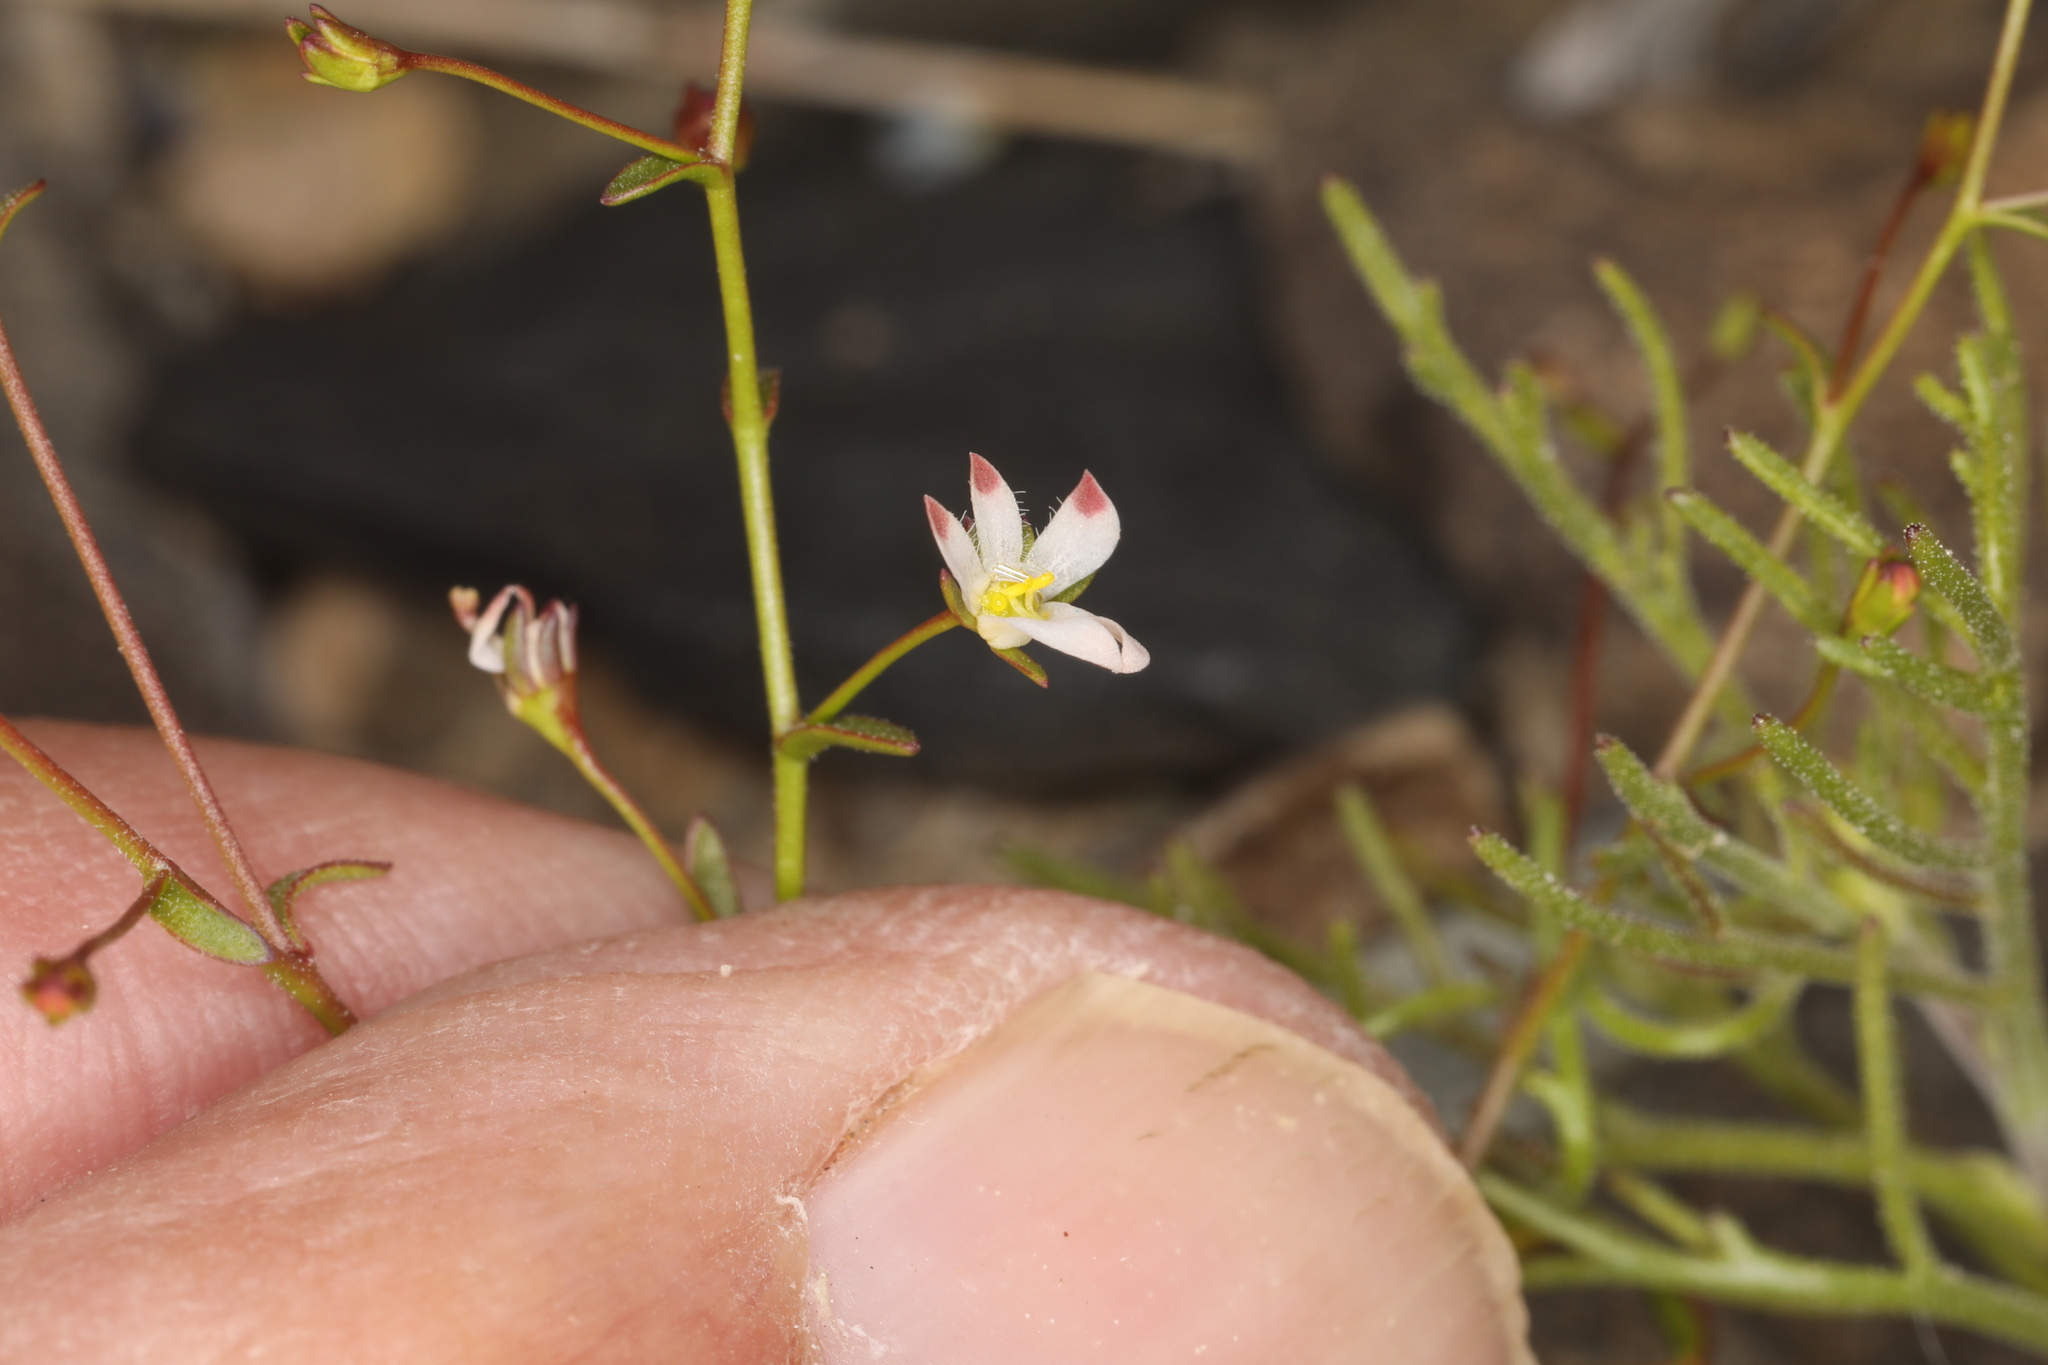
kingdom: Plantae
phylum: Tracheophyta
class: Magnoliopsida
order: Asterales
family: Campanulaceae
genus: Nemacladus
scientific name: Nemacladus orientalis
